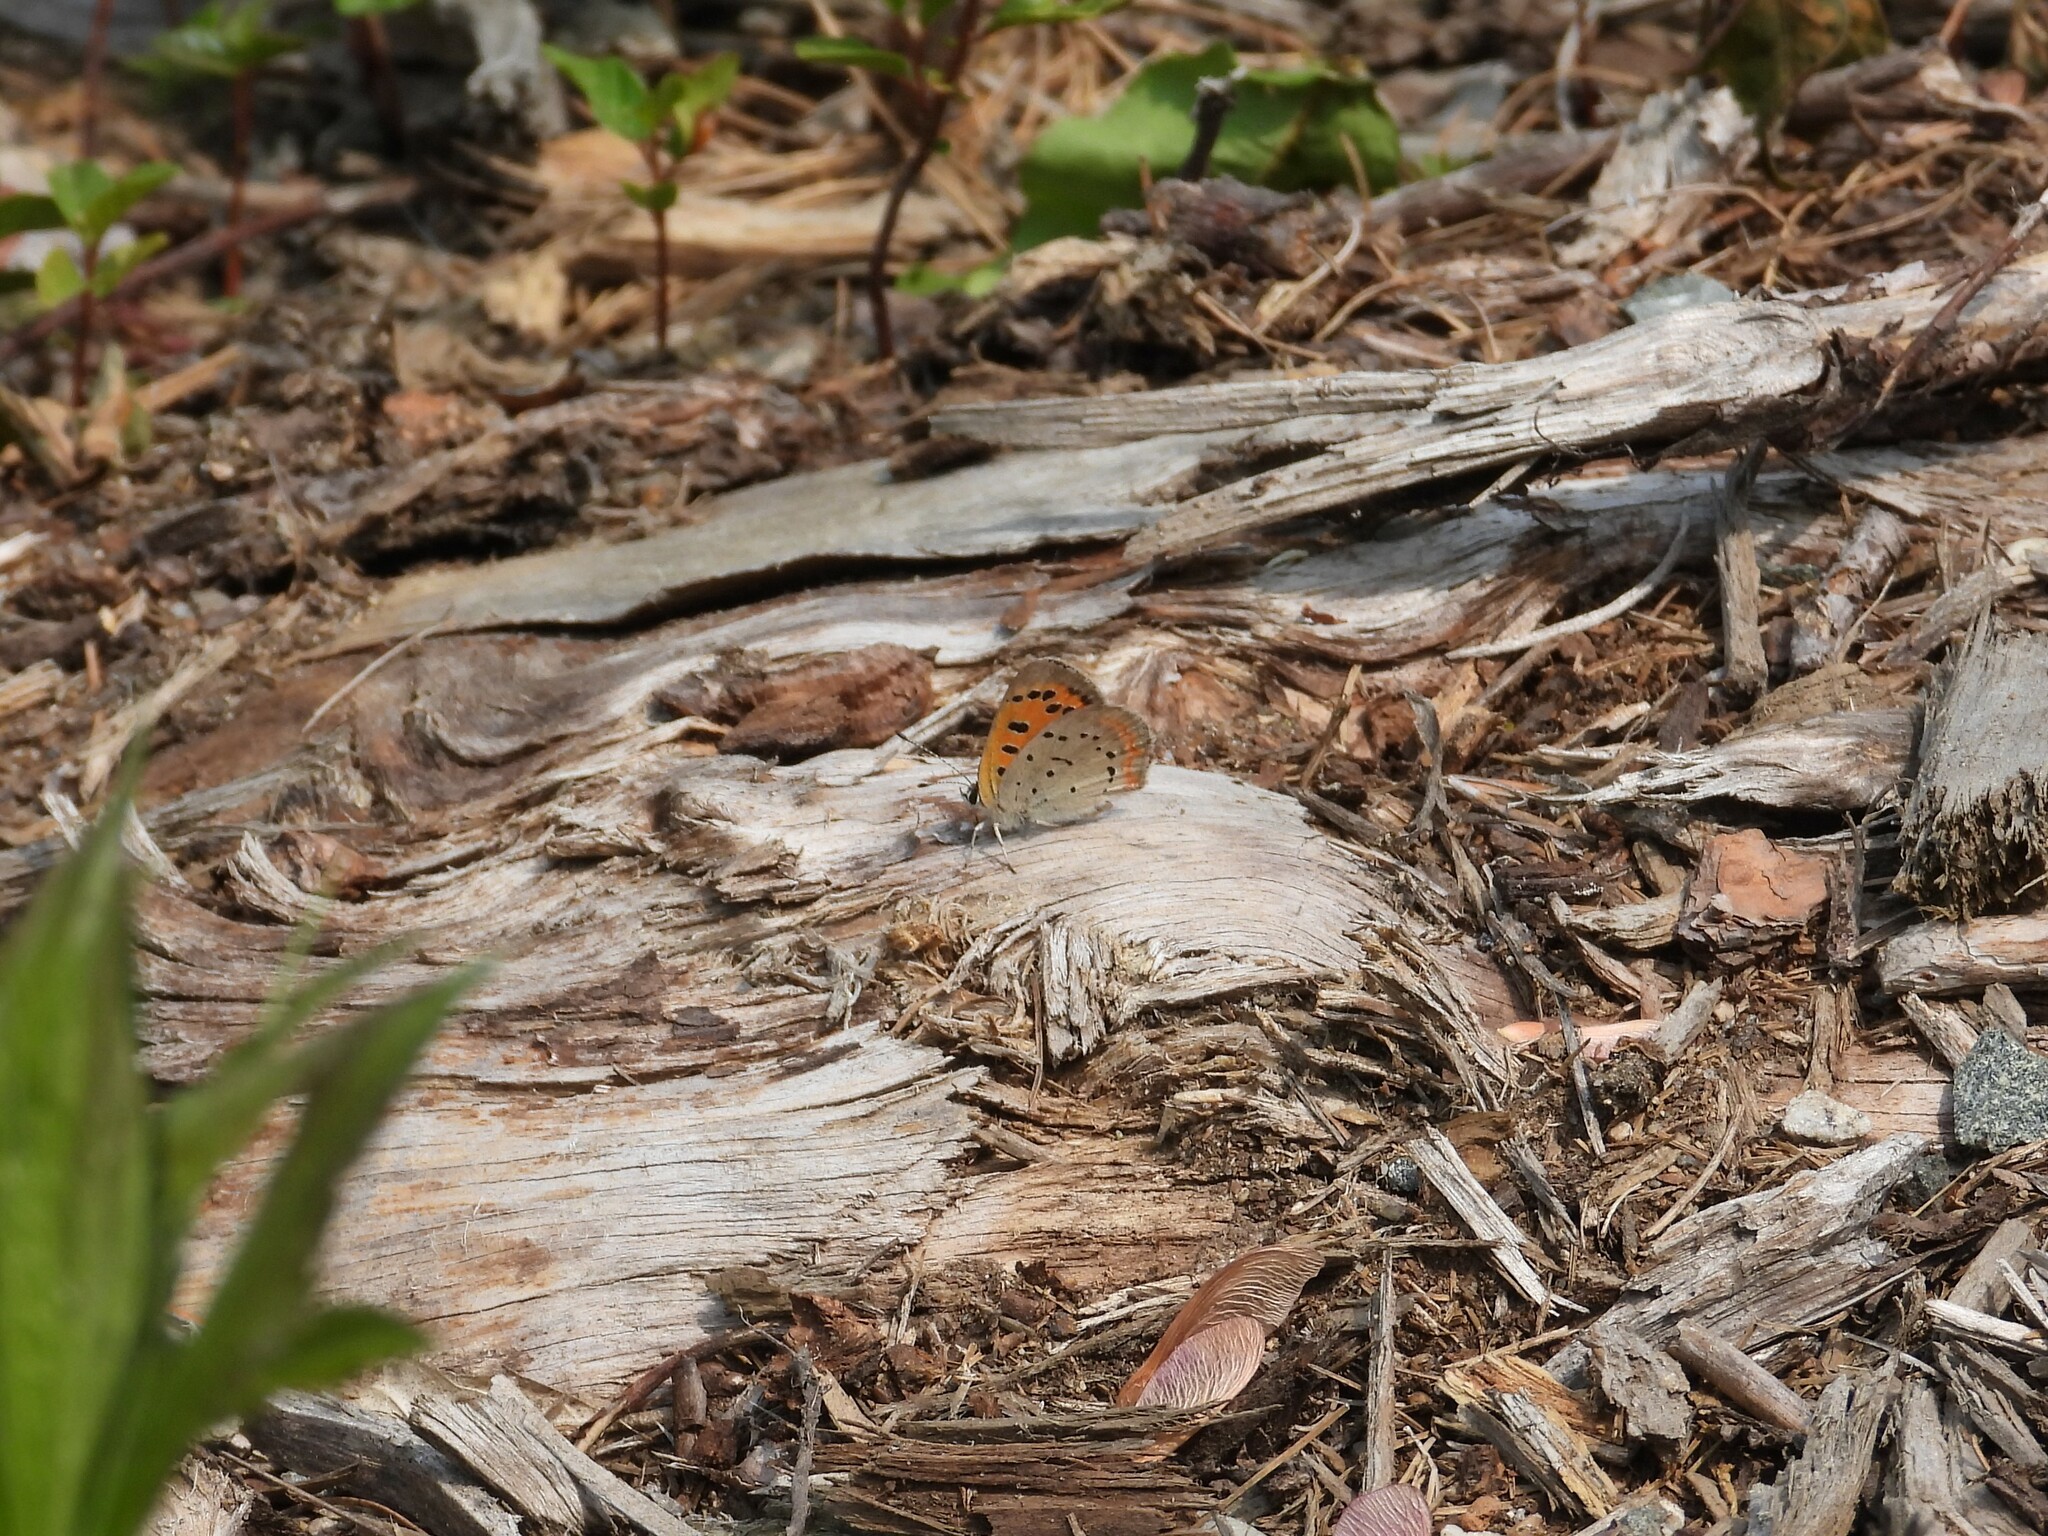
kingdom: Animalia
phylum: Arthropoda
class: Insecta
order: Lepidoptera
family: Lycaenidae
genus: Lycaena
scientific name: Lycaena hypophlaeas
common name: American copper
